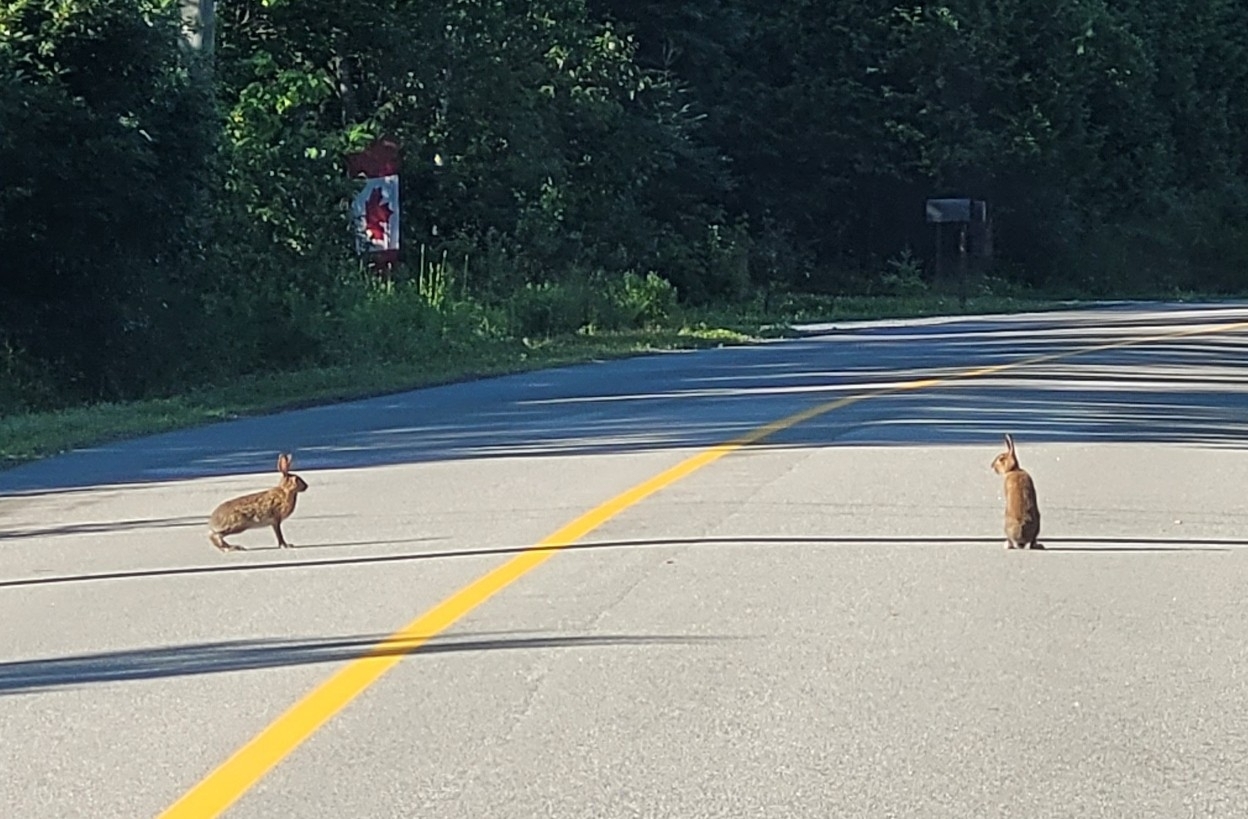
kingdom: Animalia
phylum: Chordata
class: Mammalia
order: Lagomorpha
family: Leporidae
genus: Lepus
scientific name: Lepus americanus
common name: Snowshoe hare
